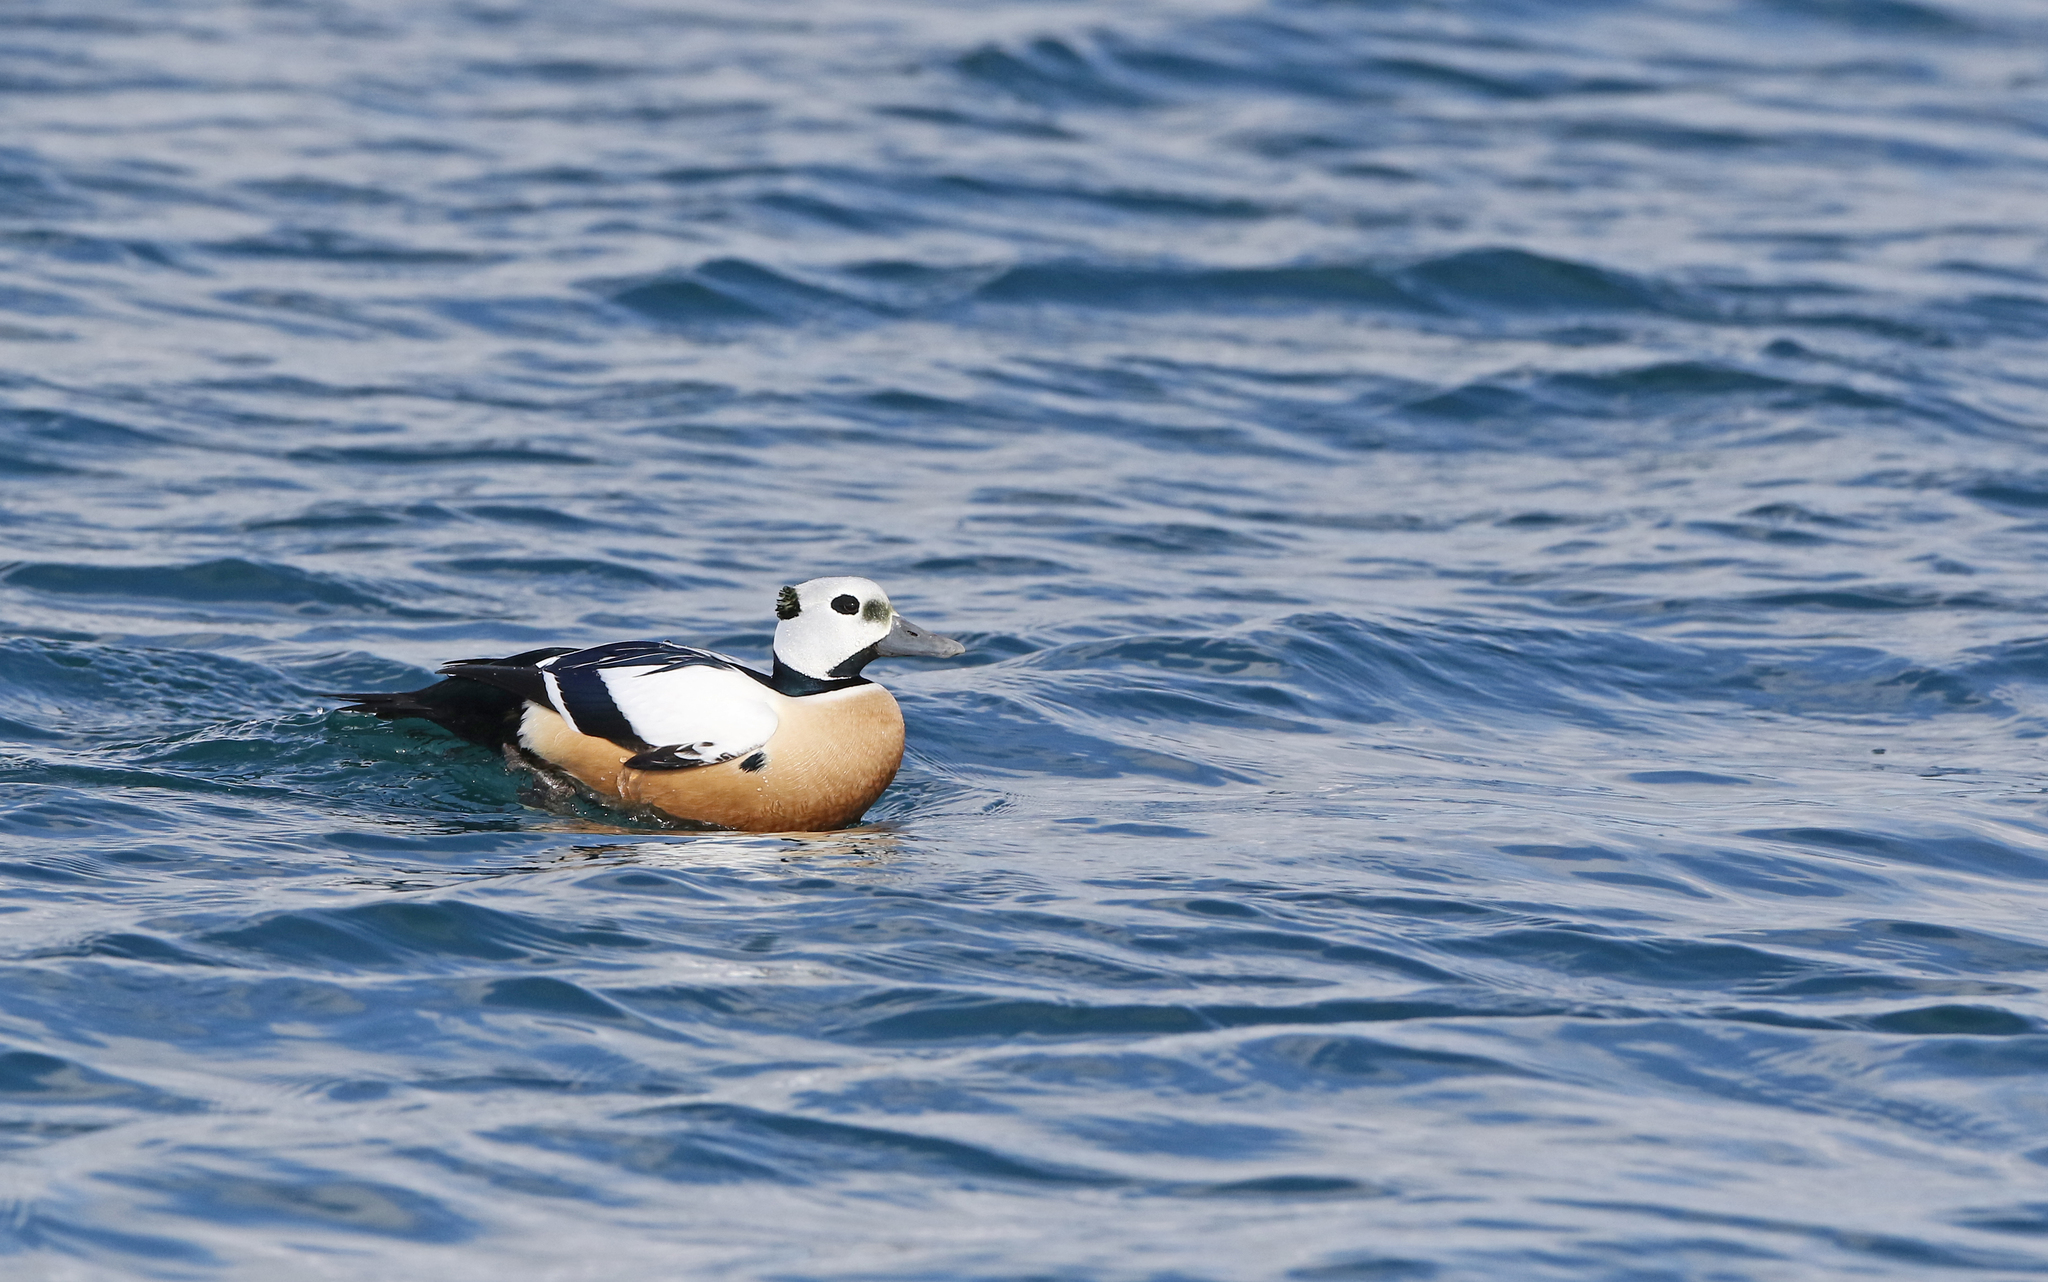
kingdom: Animalia
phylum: Chordata
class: Aves
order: Anseriformes
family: Anatidae
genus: Polysticta
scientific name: Polysticta stelleri
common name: Steller's eider
